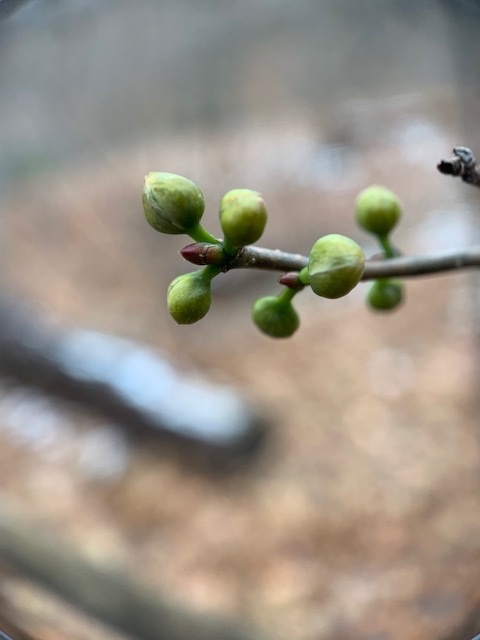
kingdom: Plantae
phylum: Tracheophyta
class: Magnoliopsida
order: Laurales
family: Lauraceae
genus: Lindera
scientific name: Lindera benzoin
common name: Spicebush
